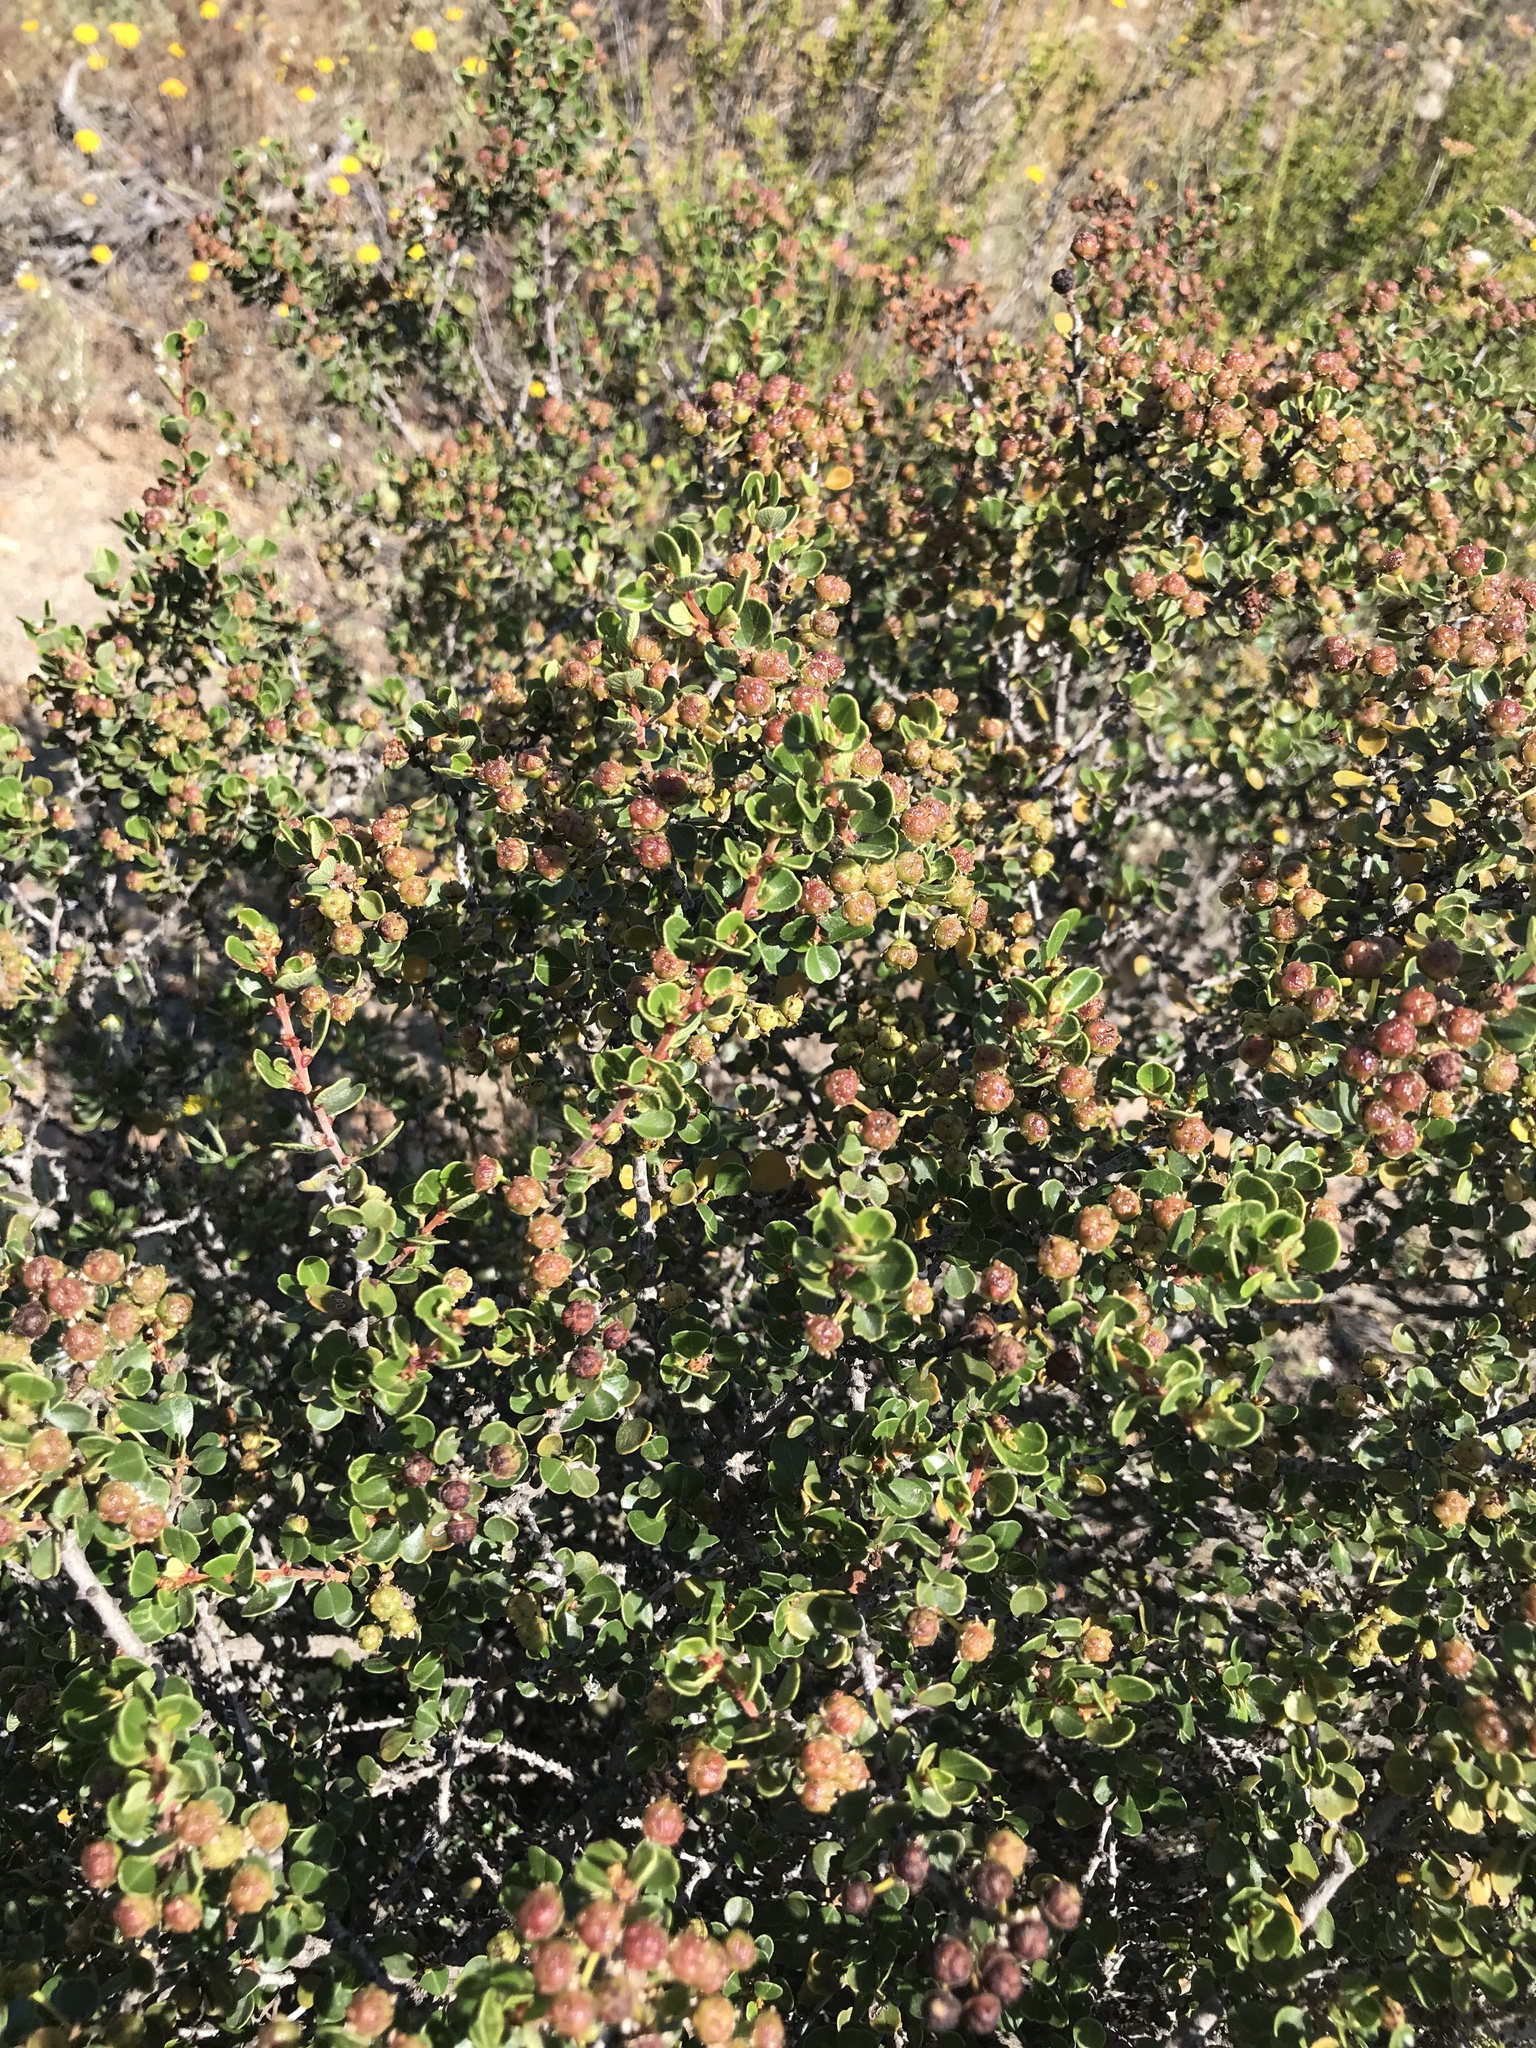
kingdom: Plantae
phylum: Tracheophyta
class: Magnoliopsida
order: Rosales
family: Rhamnaceae
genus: Ceanothus
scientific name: Ceanothus verrucosus
